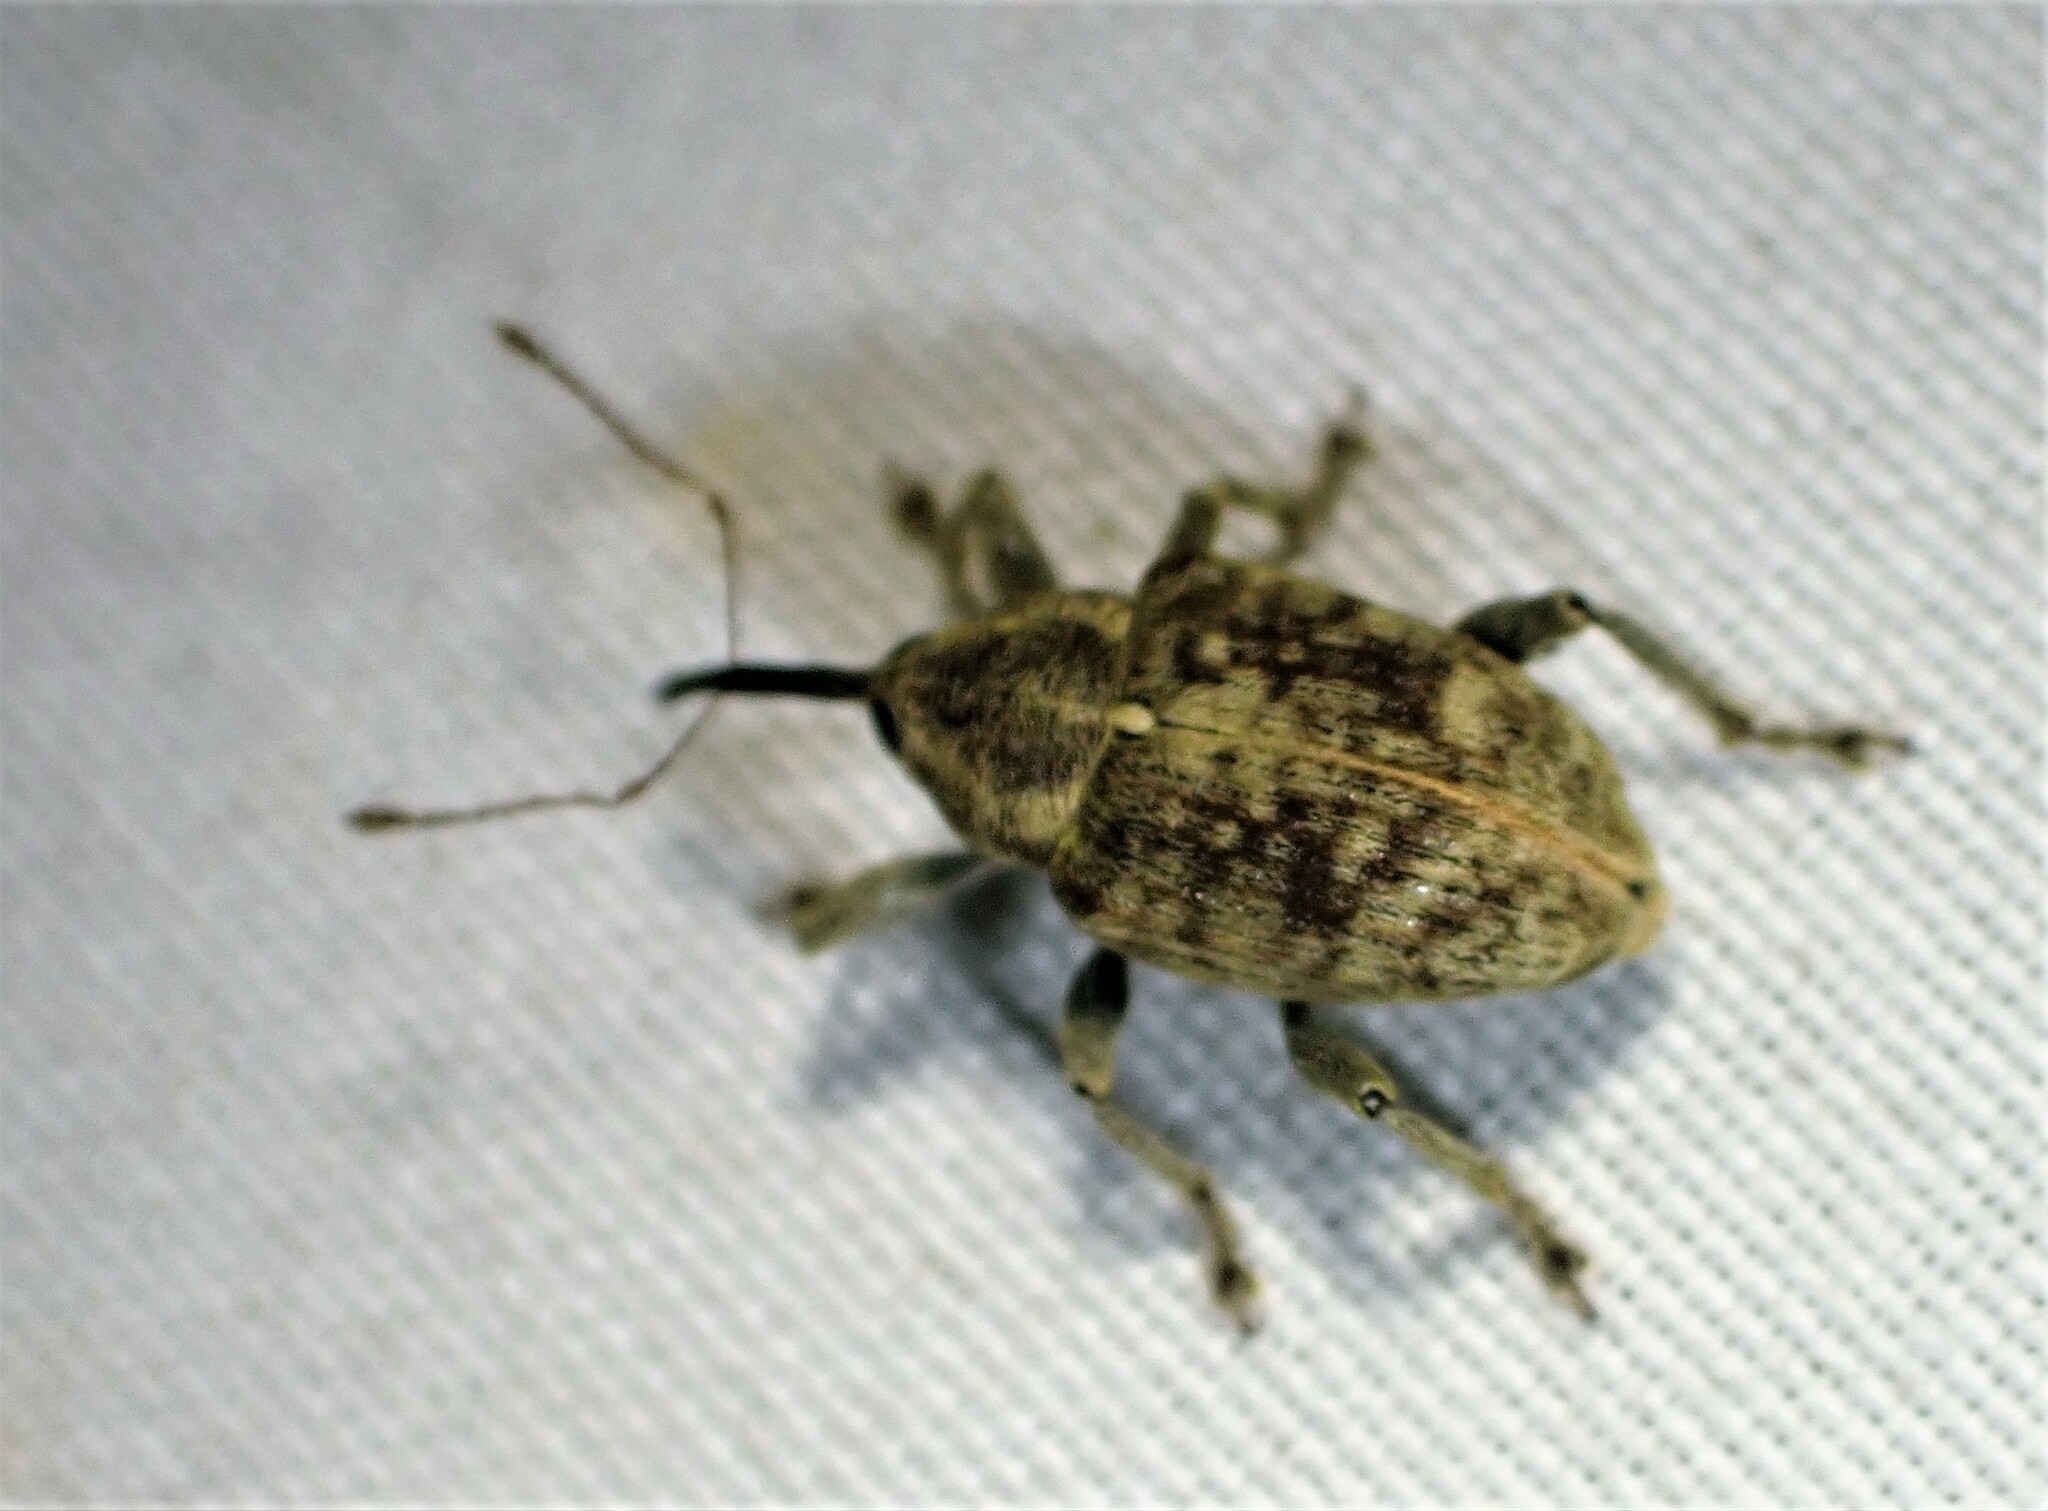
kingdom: Animalia
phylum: Arthropoda
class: Insecta
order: Coleoptera
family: Curculionidae
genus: Curculio
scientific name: Curculio obtusus
